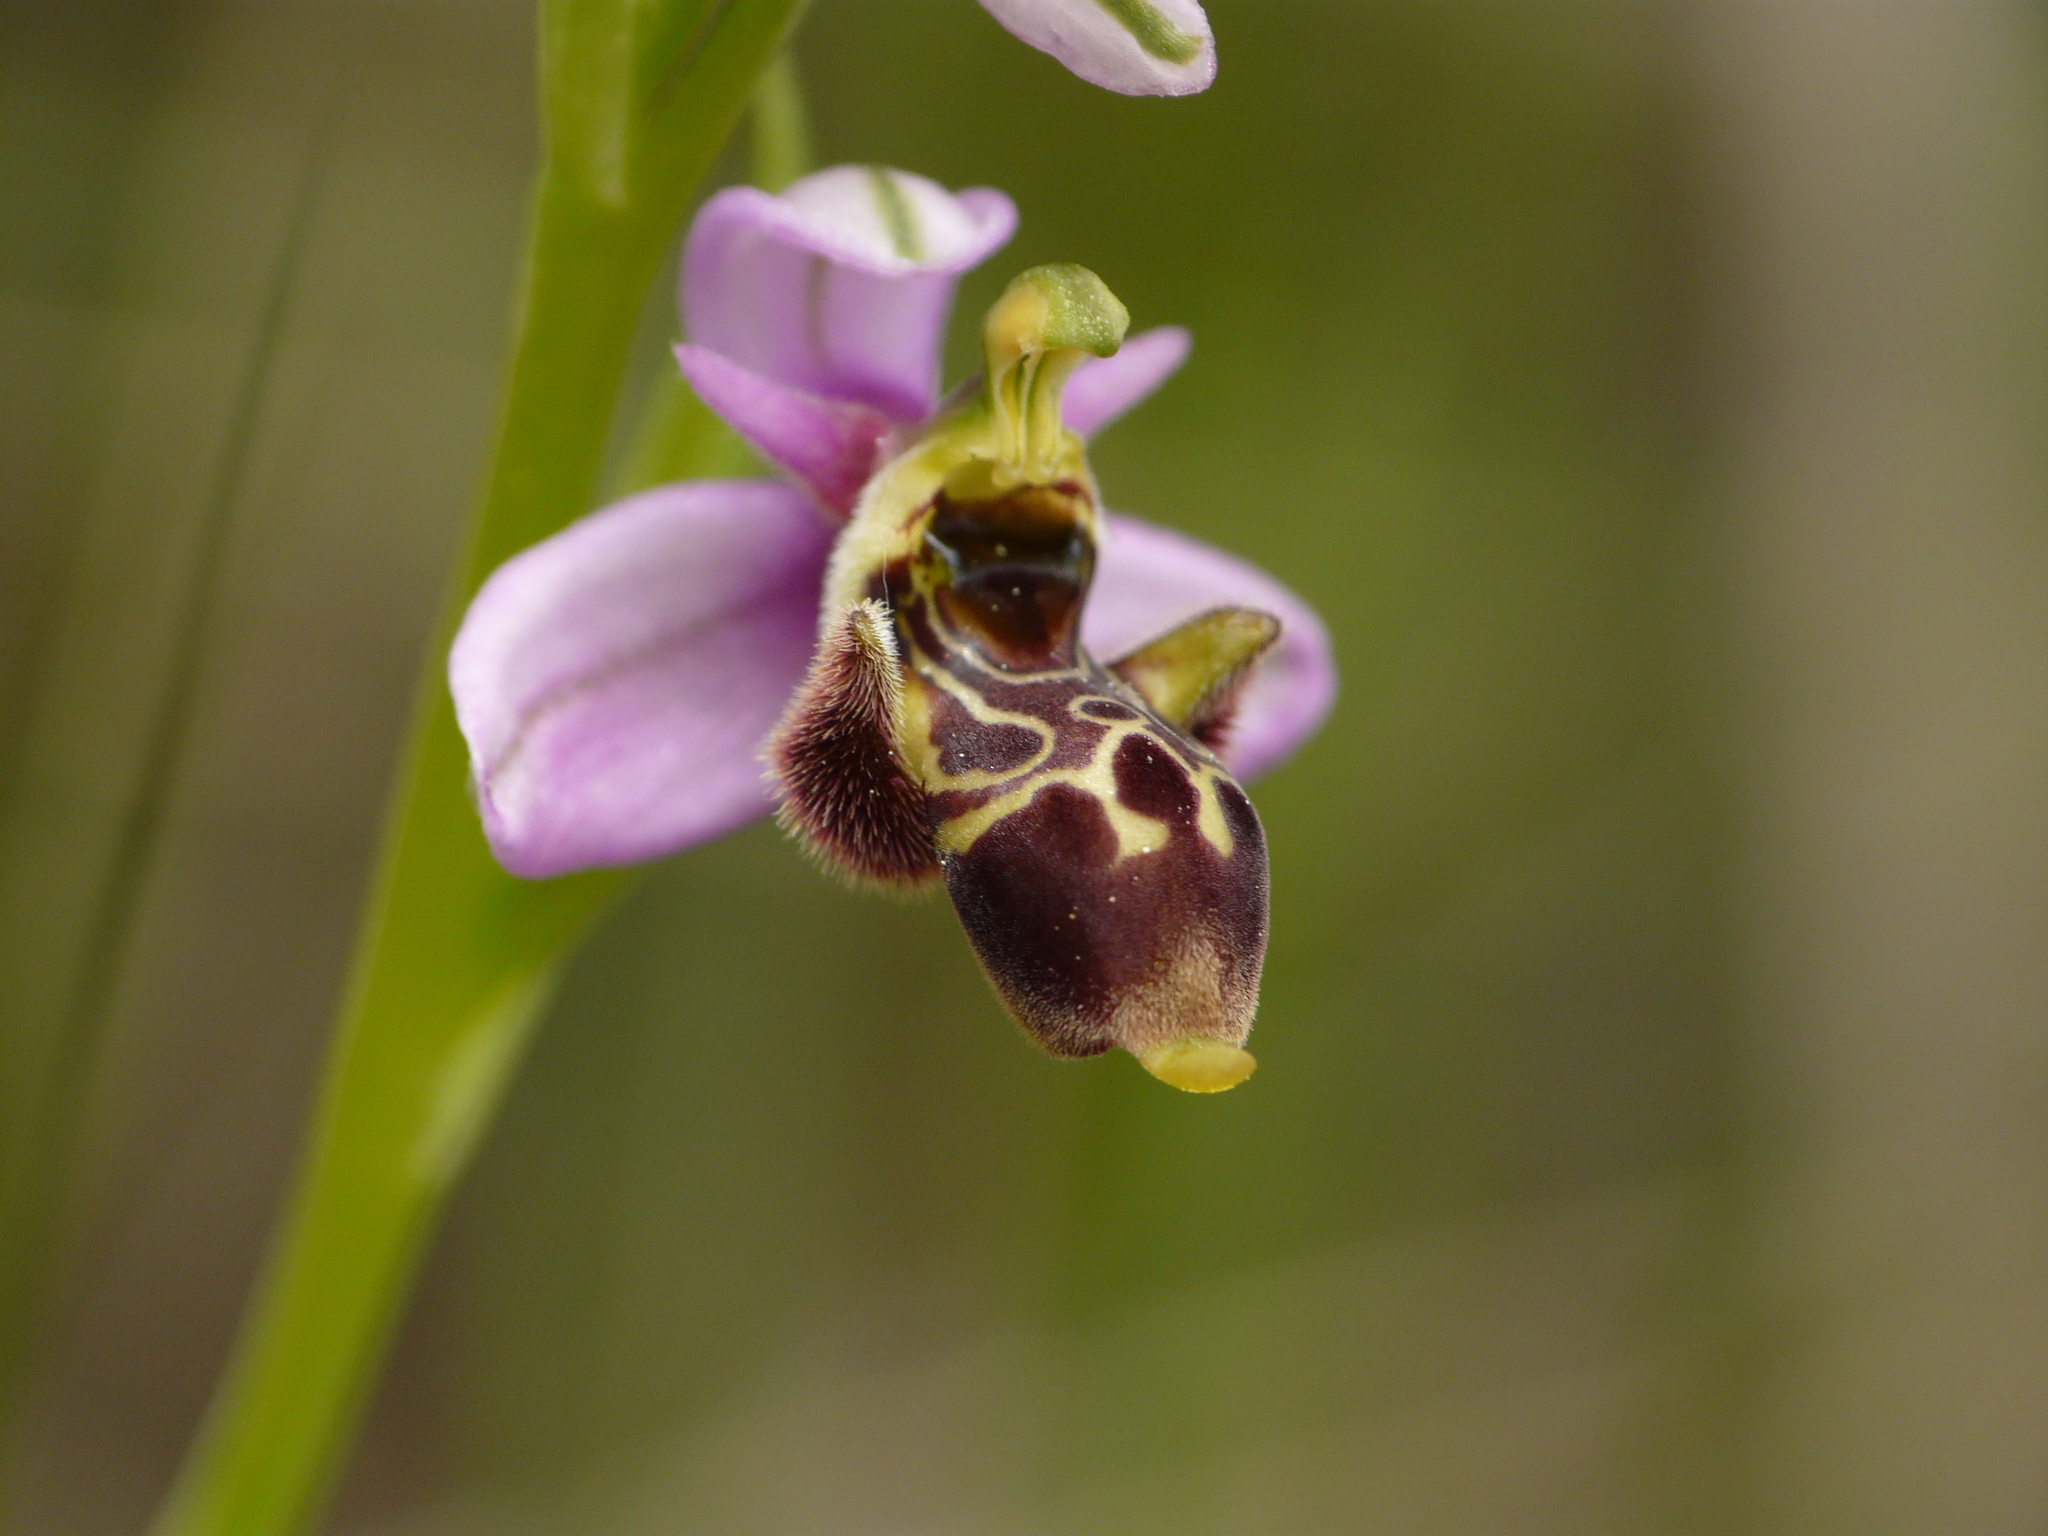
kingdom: Plantae
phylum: Tracheophyta
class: Liliopsida
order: Asparagales
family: Orchidaceae
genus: Ophrys
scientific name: Ophrys scolopax
